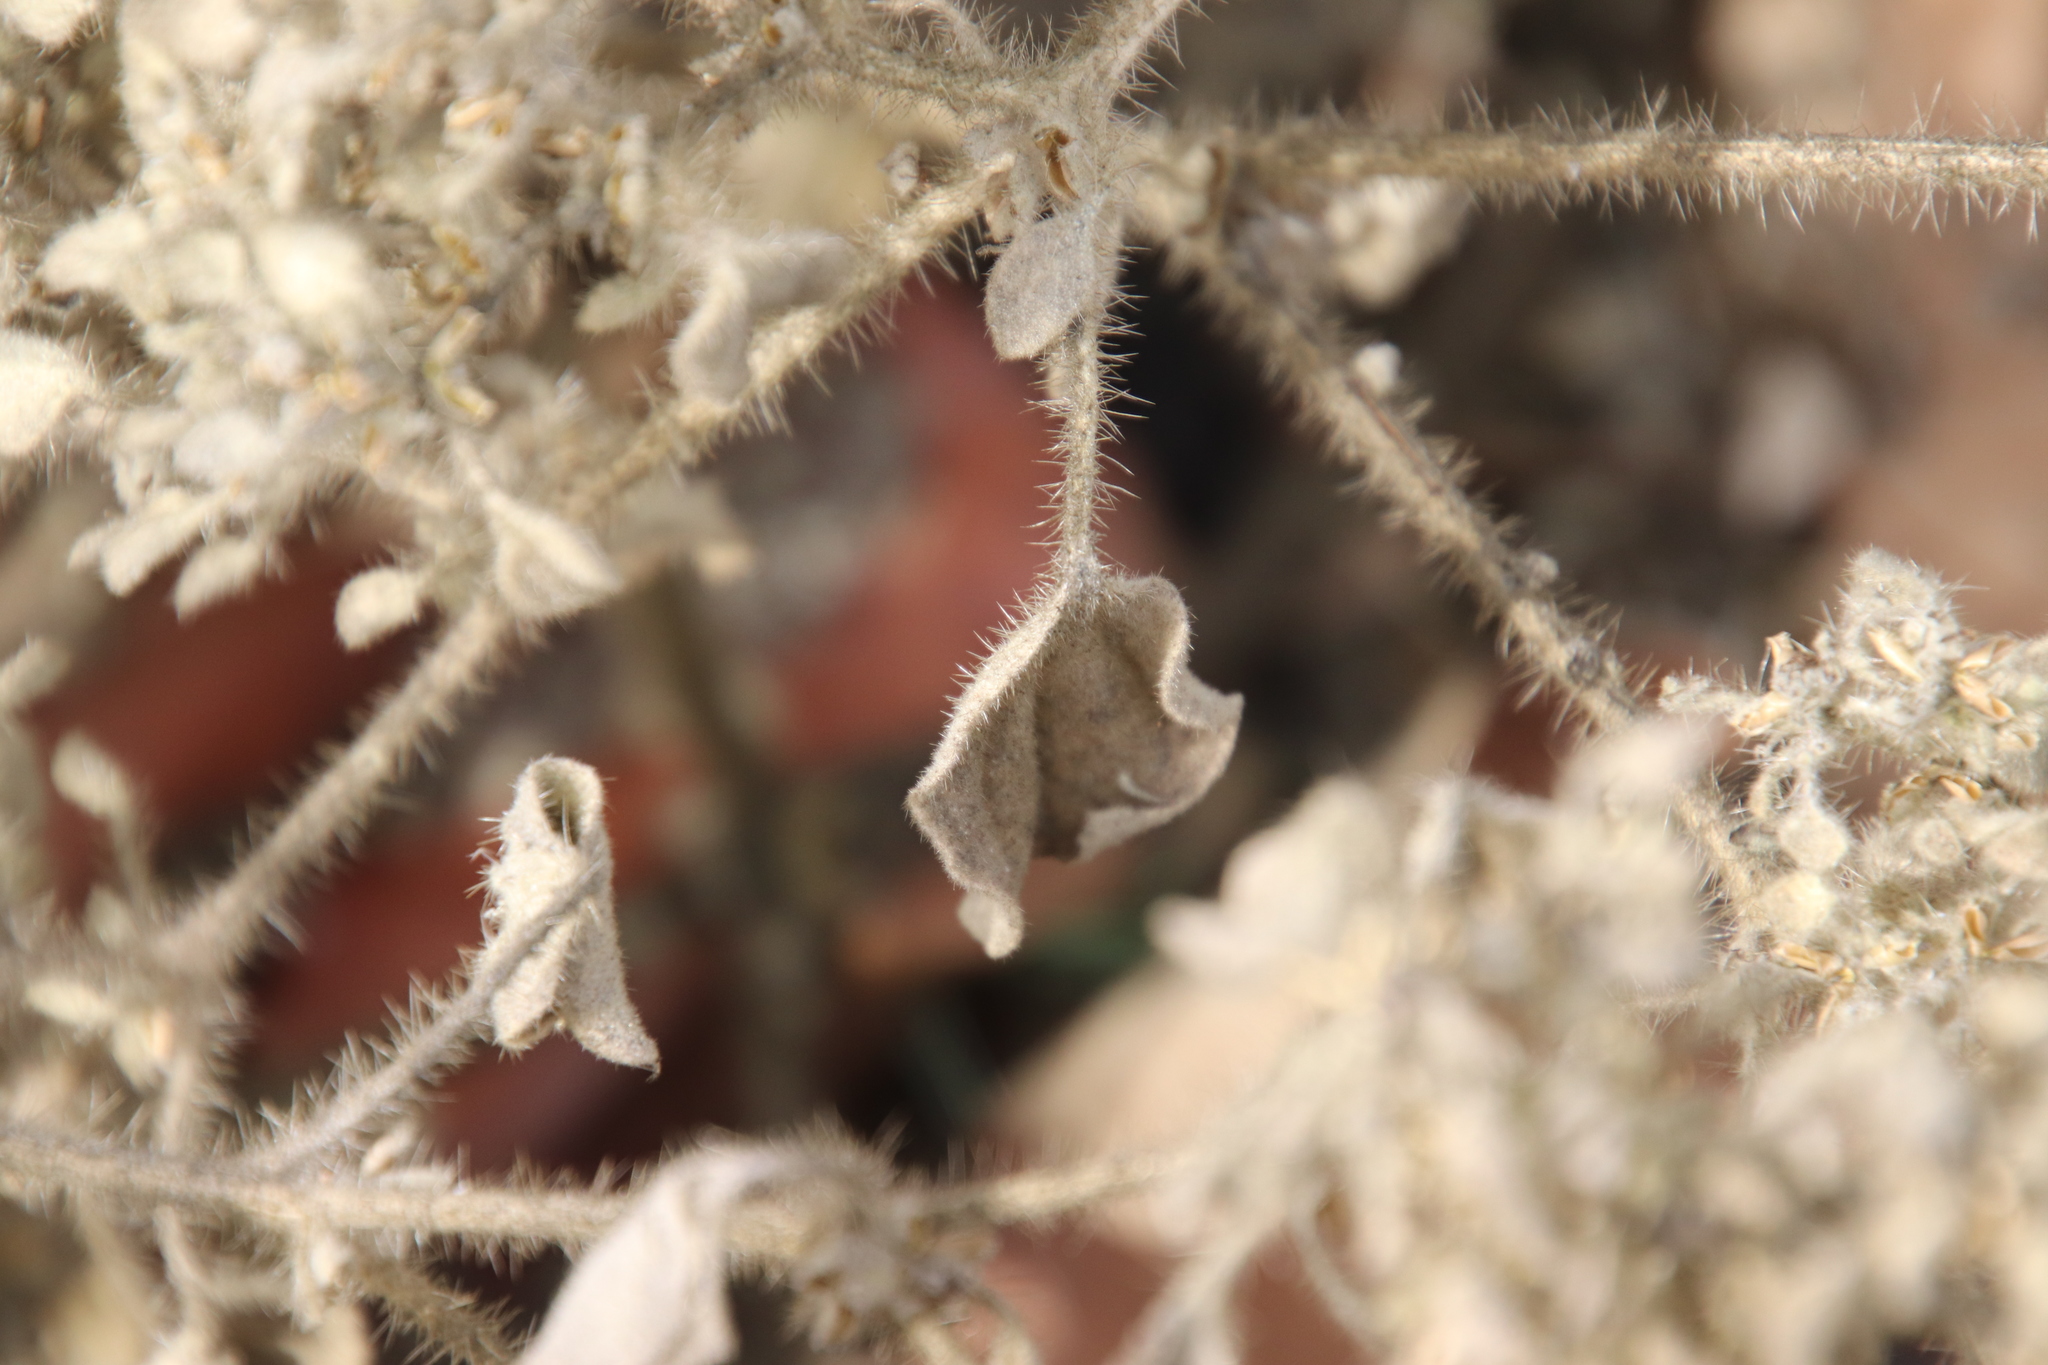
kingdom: Plantae
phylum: Tracheophyta
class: Magnoliopsida
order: Malpighiales
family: Euphorbiaceae
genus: Croton
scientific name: Croton setiger
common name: Dove weed
